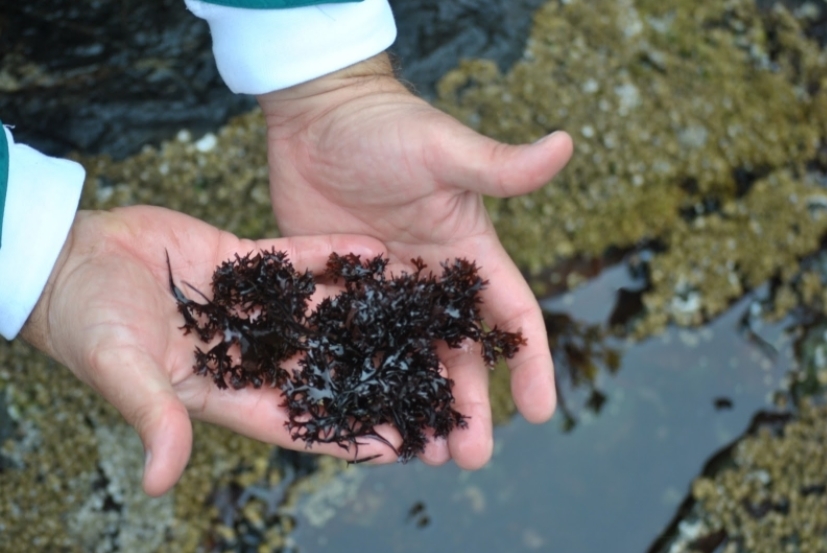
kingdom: Plantae
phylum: Rhodophyta
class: Florideophyceae
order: Gigartinales
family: Gigartinaceae
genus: Chondrus
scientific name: Chondrus crispus
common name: Carrageen
